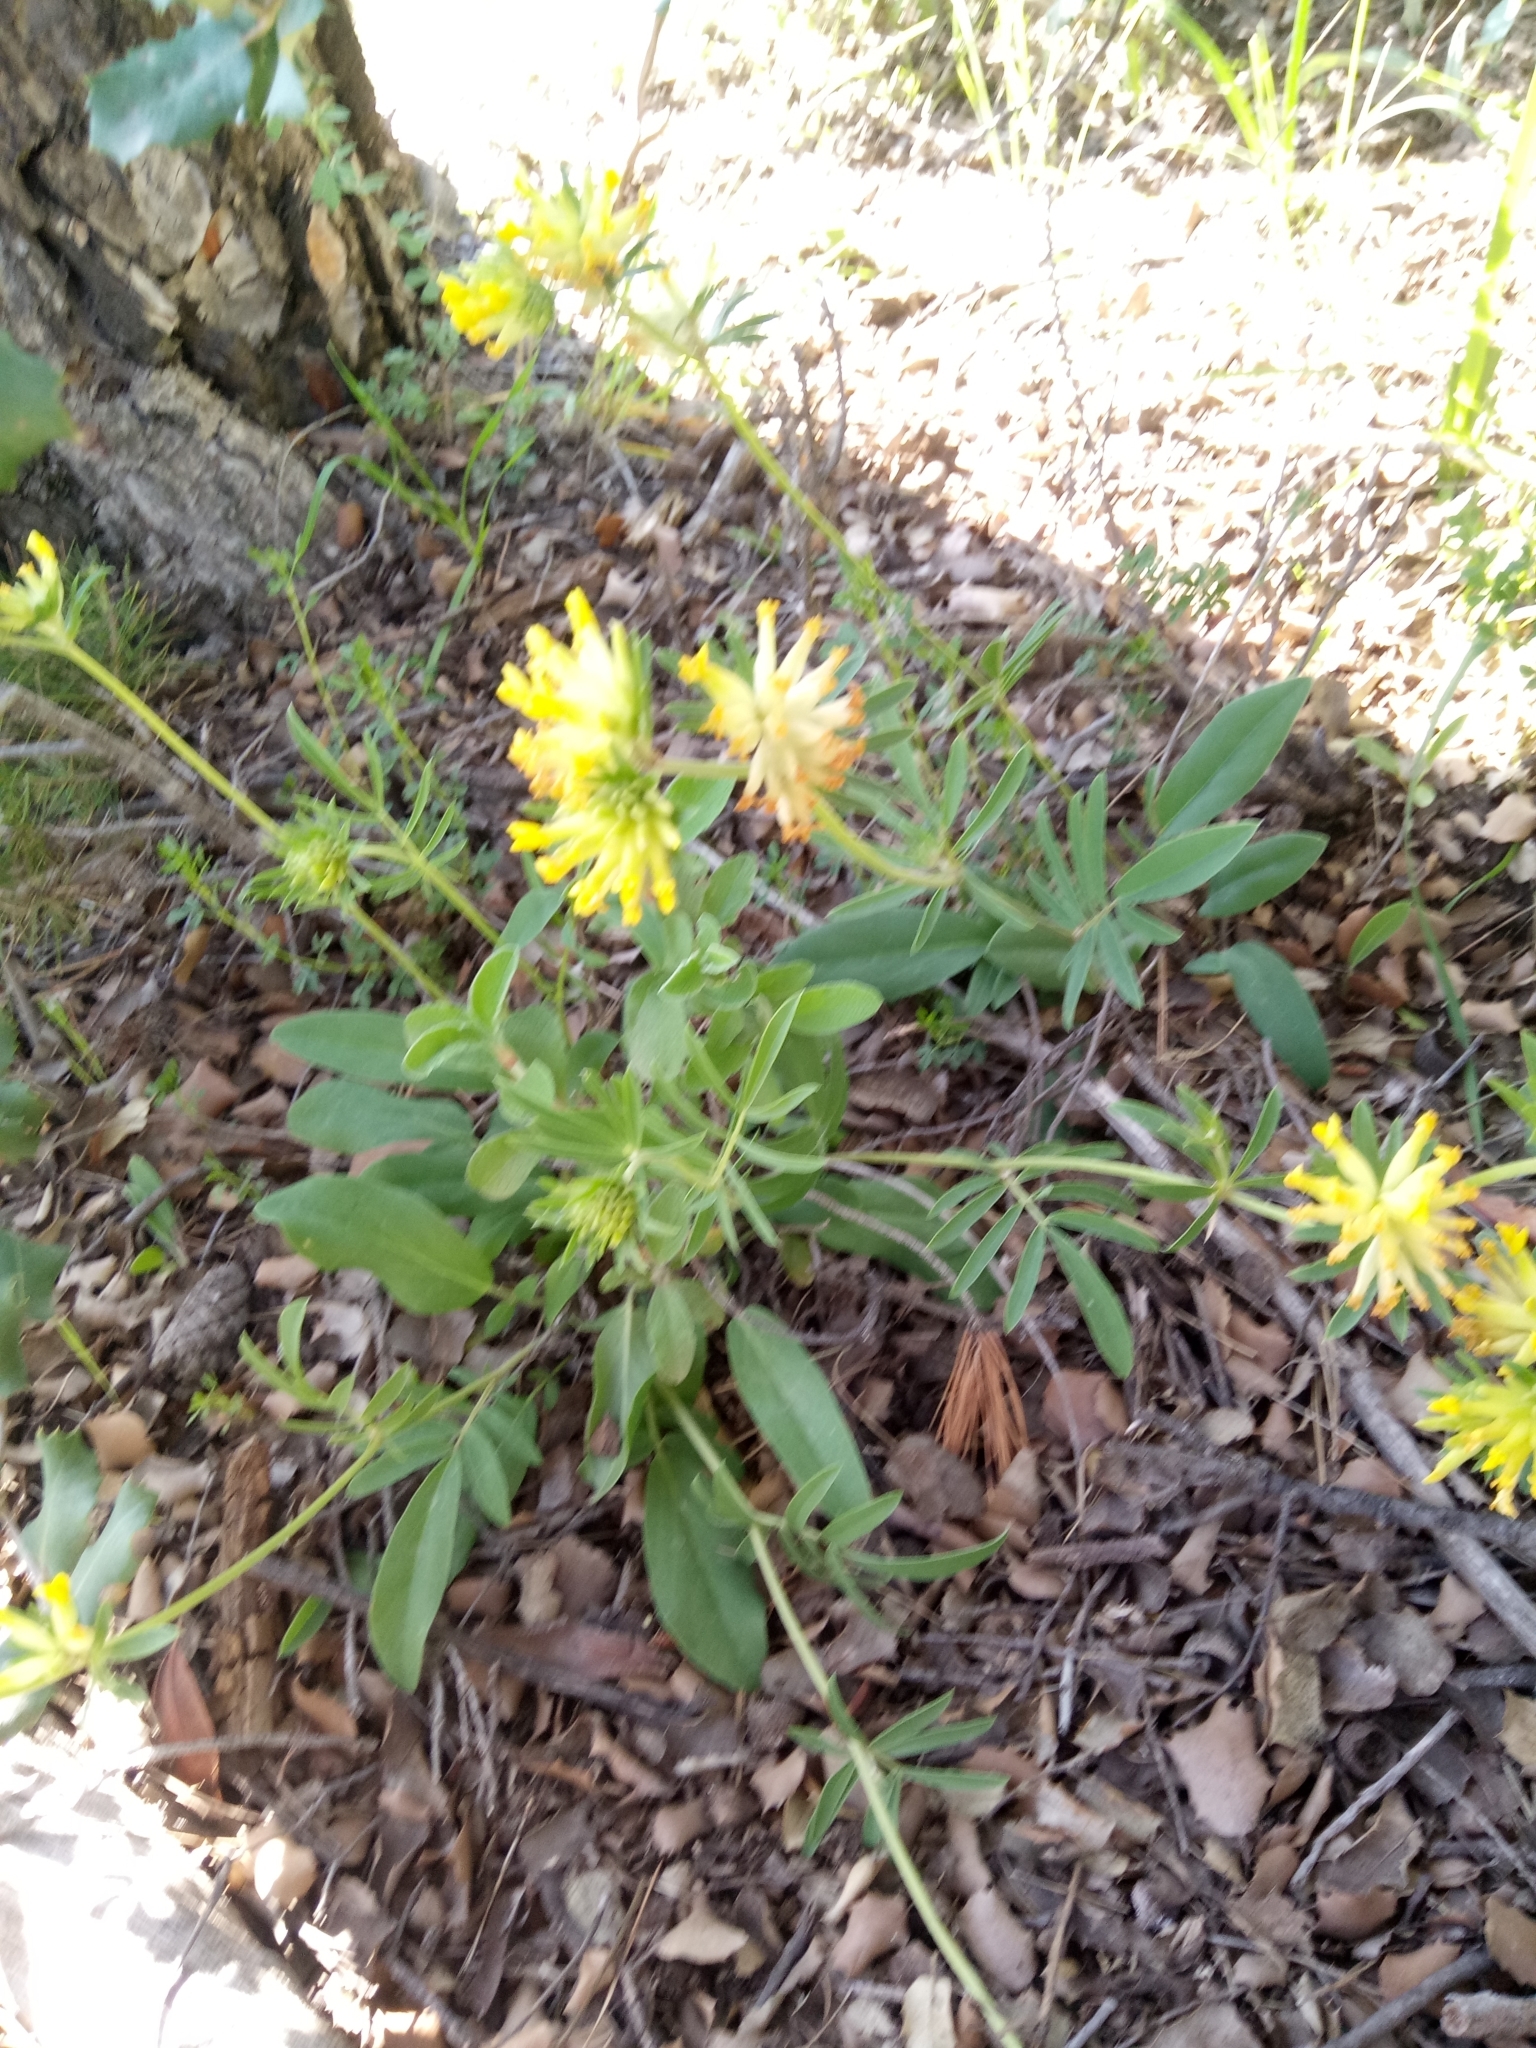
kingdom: Plantae
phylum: Tracheophyta
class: Magnoliopsida
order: Fabales
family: Fabaceae
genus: Anthyllis
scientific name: Anthyllis vulneraria
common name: Kidney vetch
